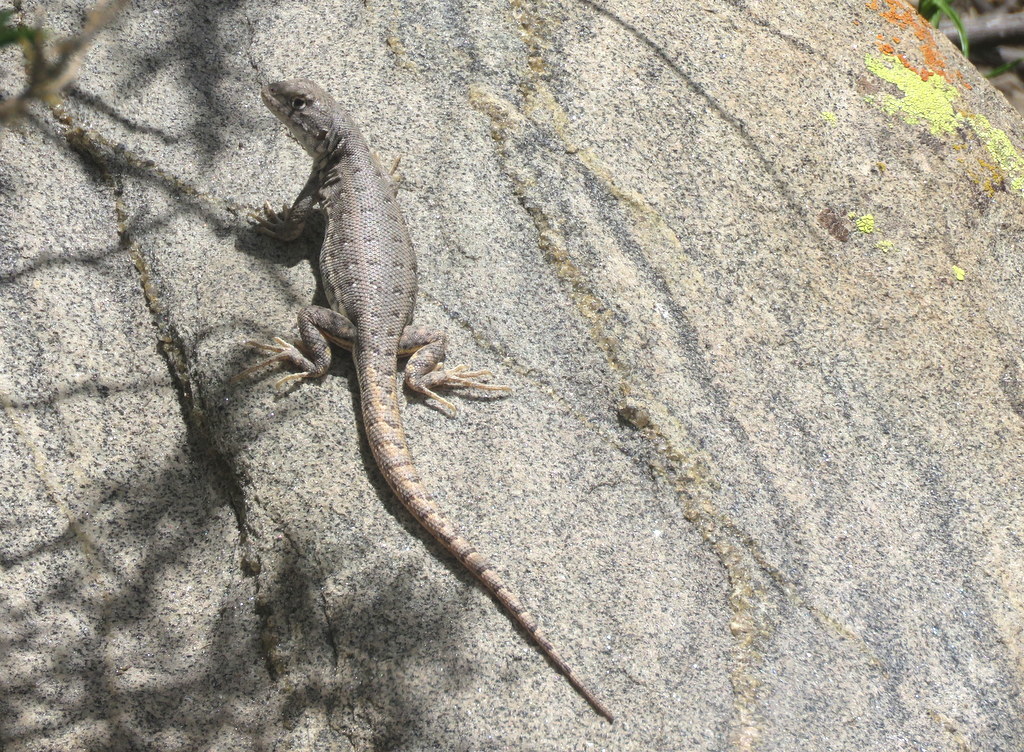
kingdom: Animalia
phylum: Chordata
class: Squamata
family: Liolaemidae
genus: Liolaemus
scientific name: Liolaemus quilmes
